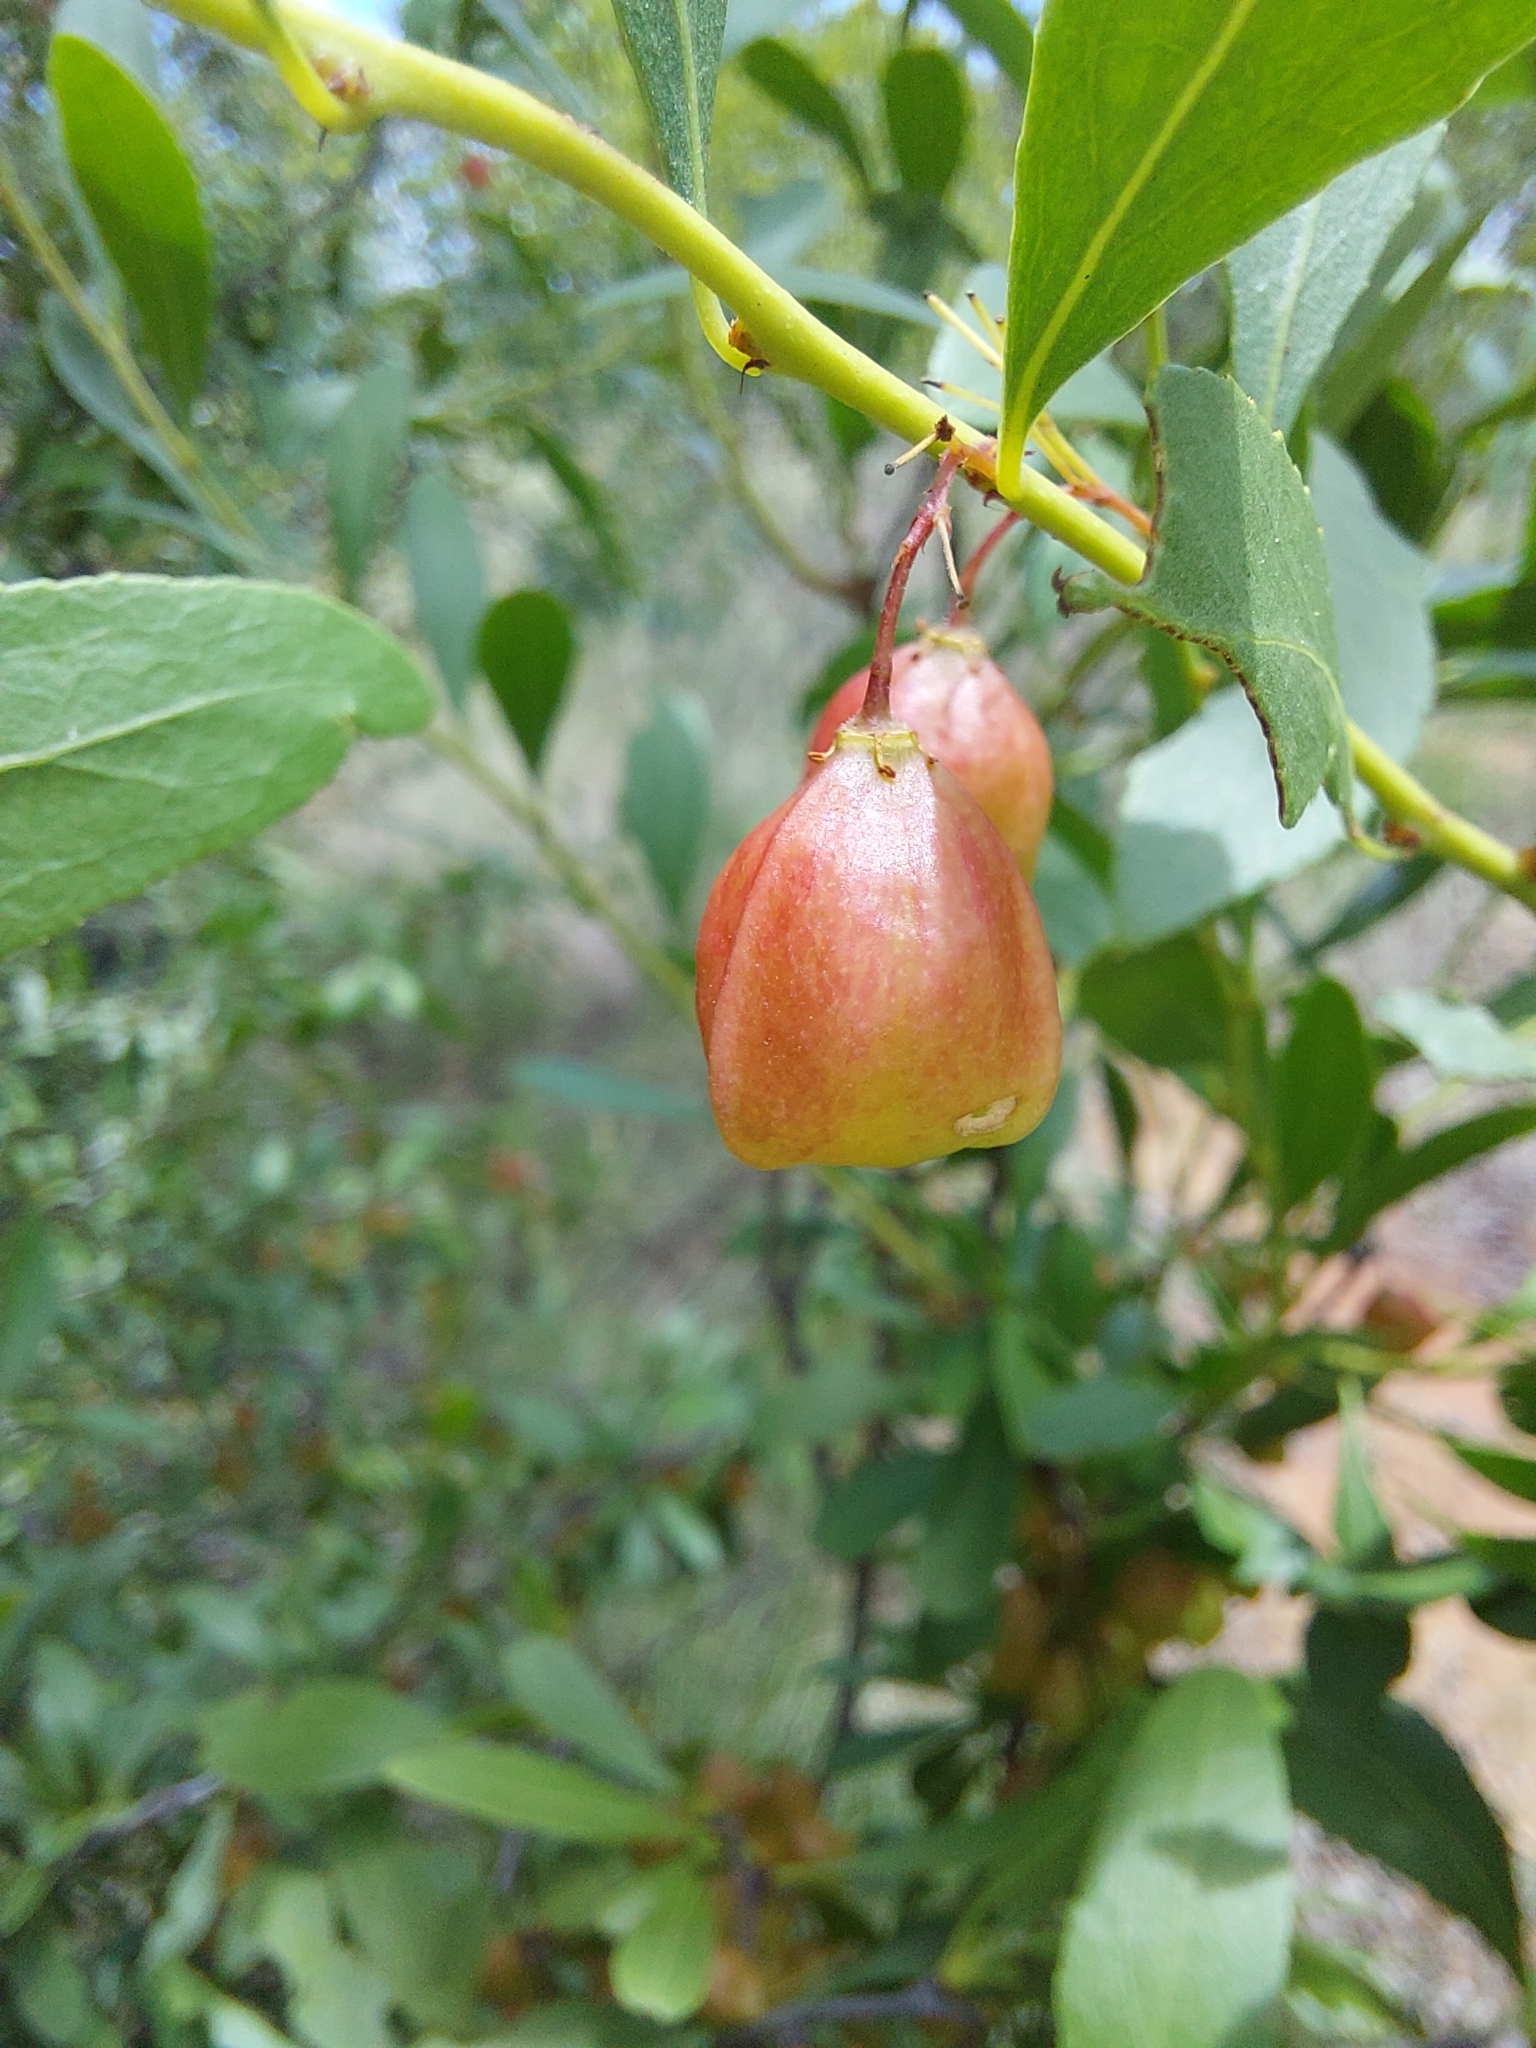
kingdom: Plantae
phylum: Tracheophyta
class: Magnoliopsida
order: Celastrales
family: Celastraceae
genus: Gymnosporia
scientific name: Gymnosporia tenuispina
